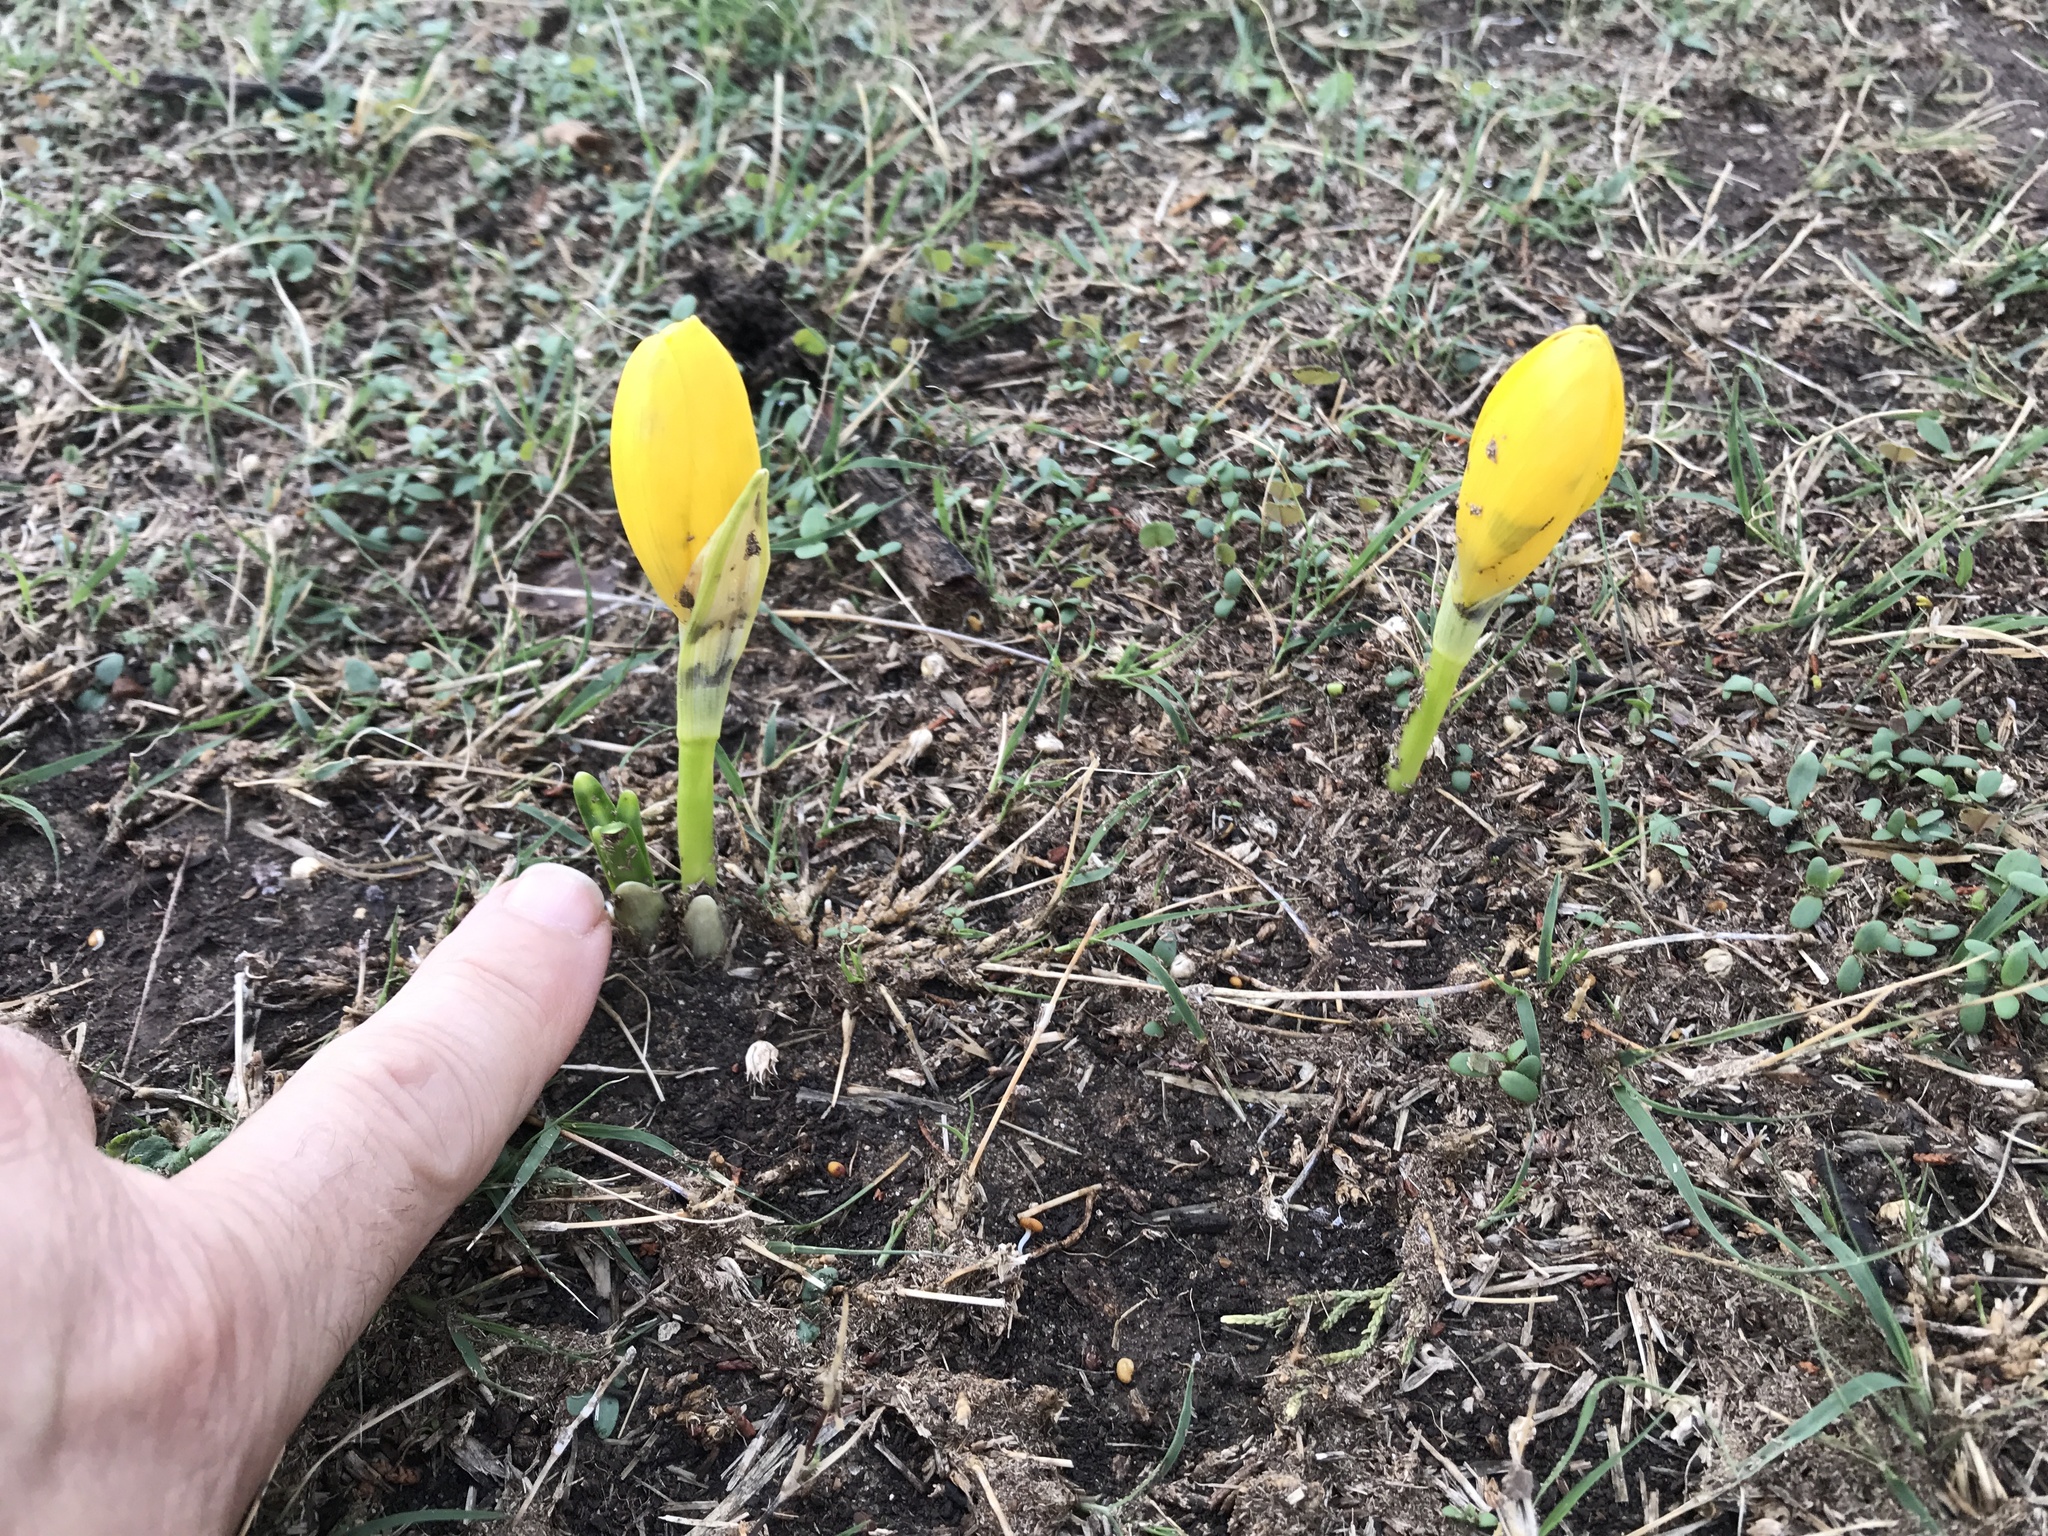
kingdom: Plantae
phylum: Tracheophyta
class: Liliopsida
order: Asparagales
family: Amaryllidaceae
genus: Sternbergia
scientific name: Sternbergia lutea
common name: Winter daffodil
